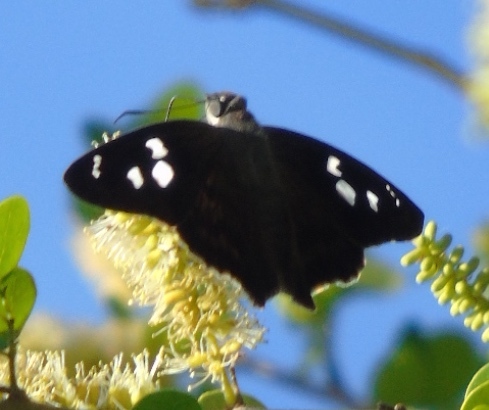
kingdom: Animalia
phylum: Arthropoda
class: Insecta
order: Lepidoptera
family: Hesperiidae
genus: Polygonus
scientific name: Polygonus
